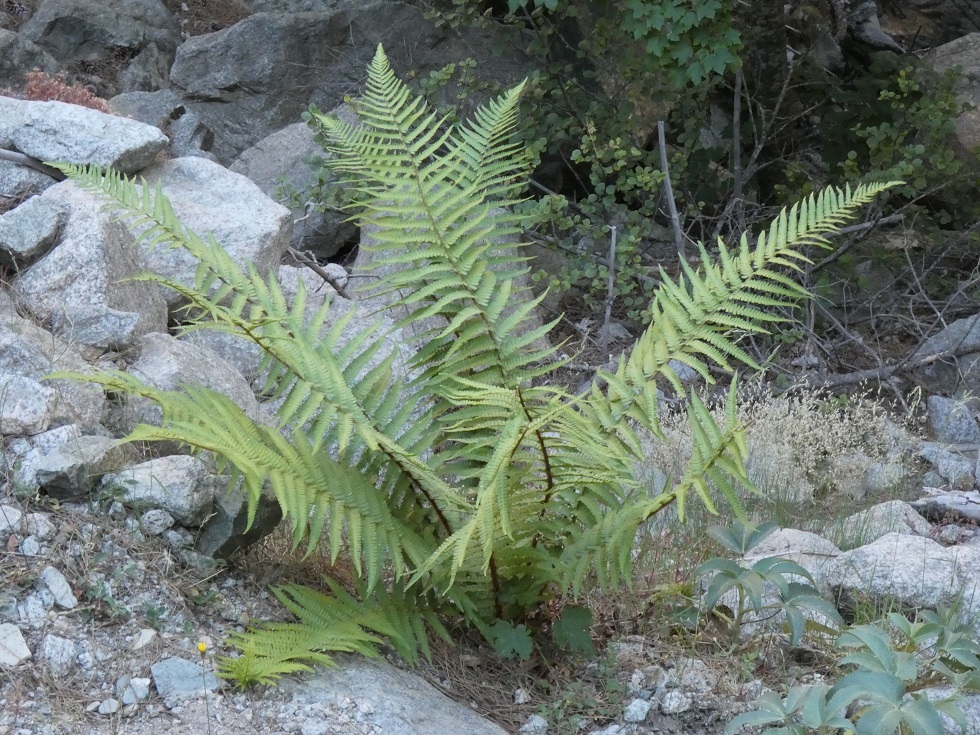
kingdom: Plantae
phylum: Tracheophyta
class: Polypodiopsida
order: Polypodiales
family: Dryopteridaceae
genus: Dryopteris
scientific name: Dryopteris filix-mas
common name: Male fern
